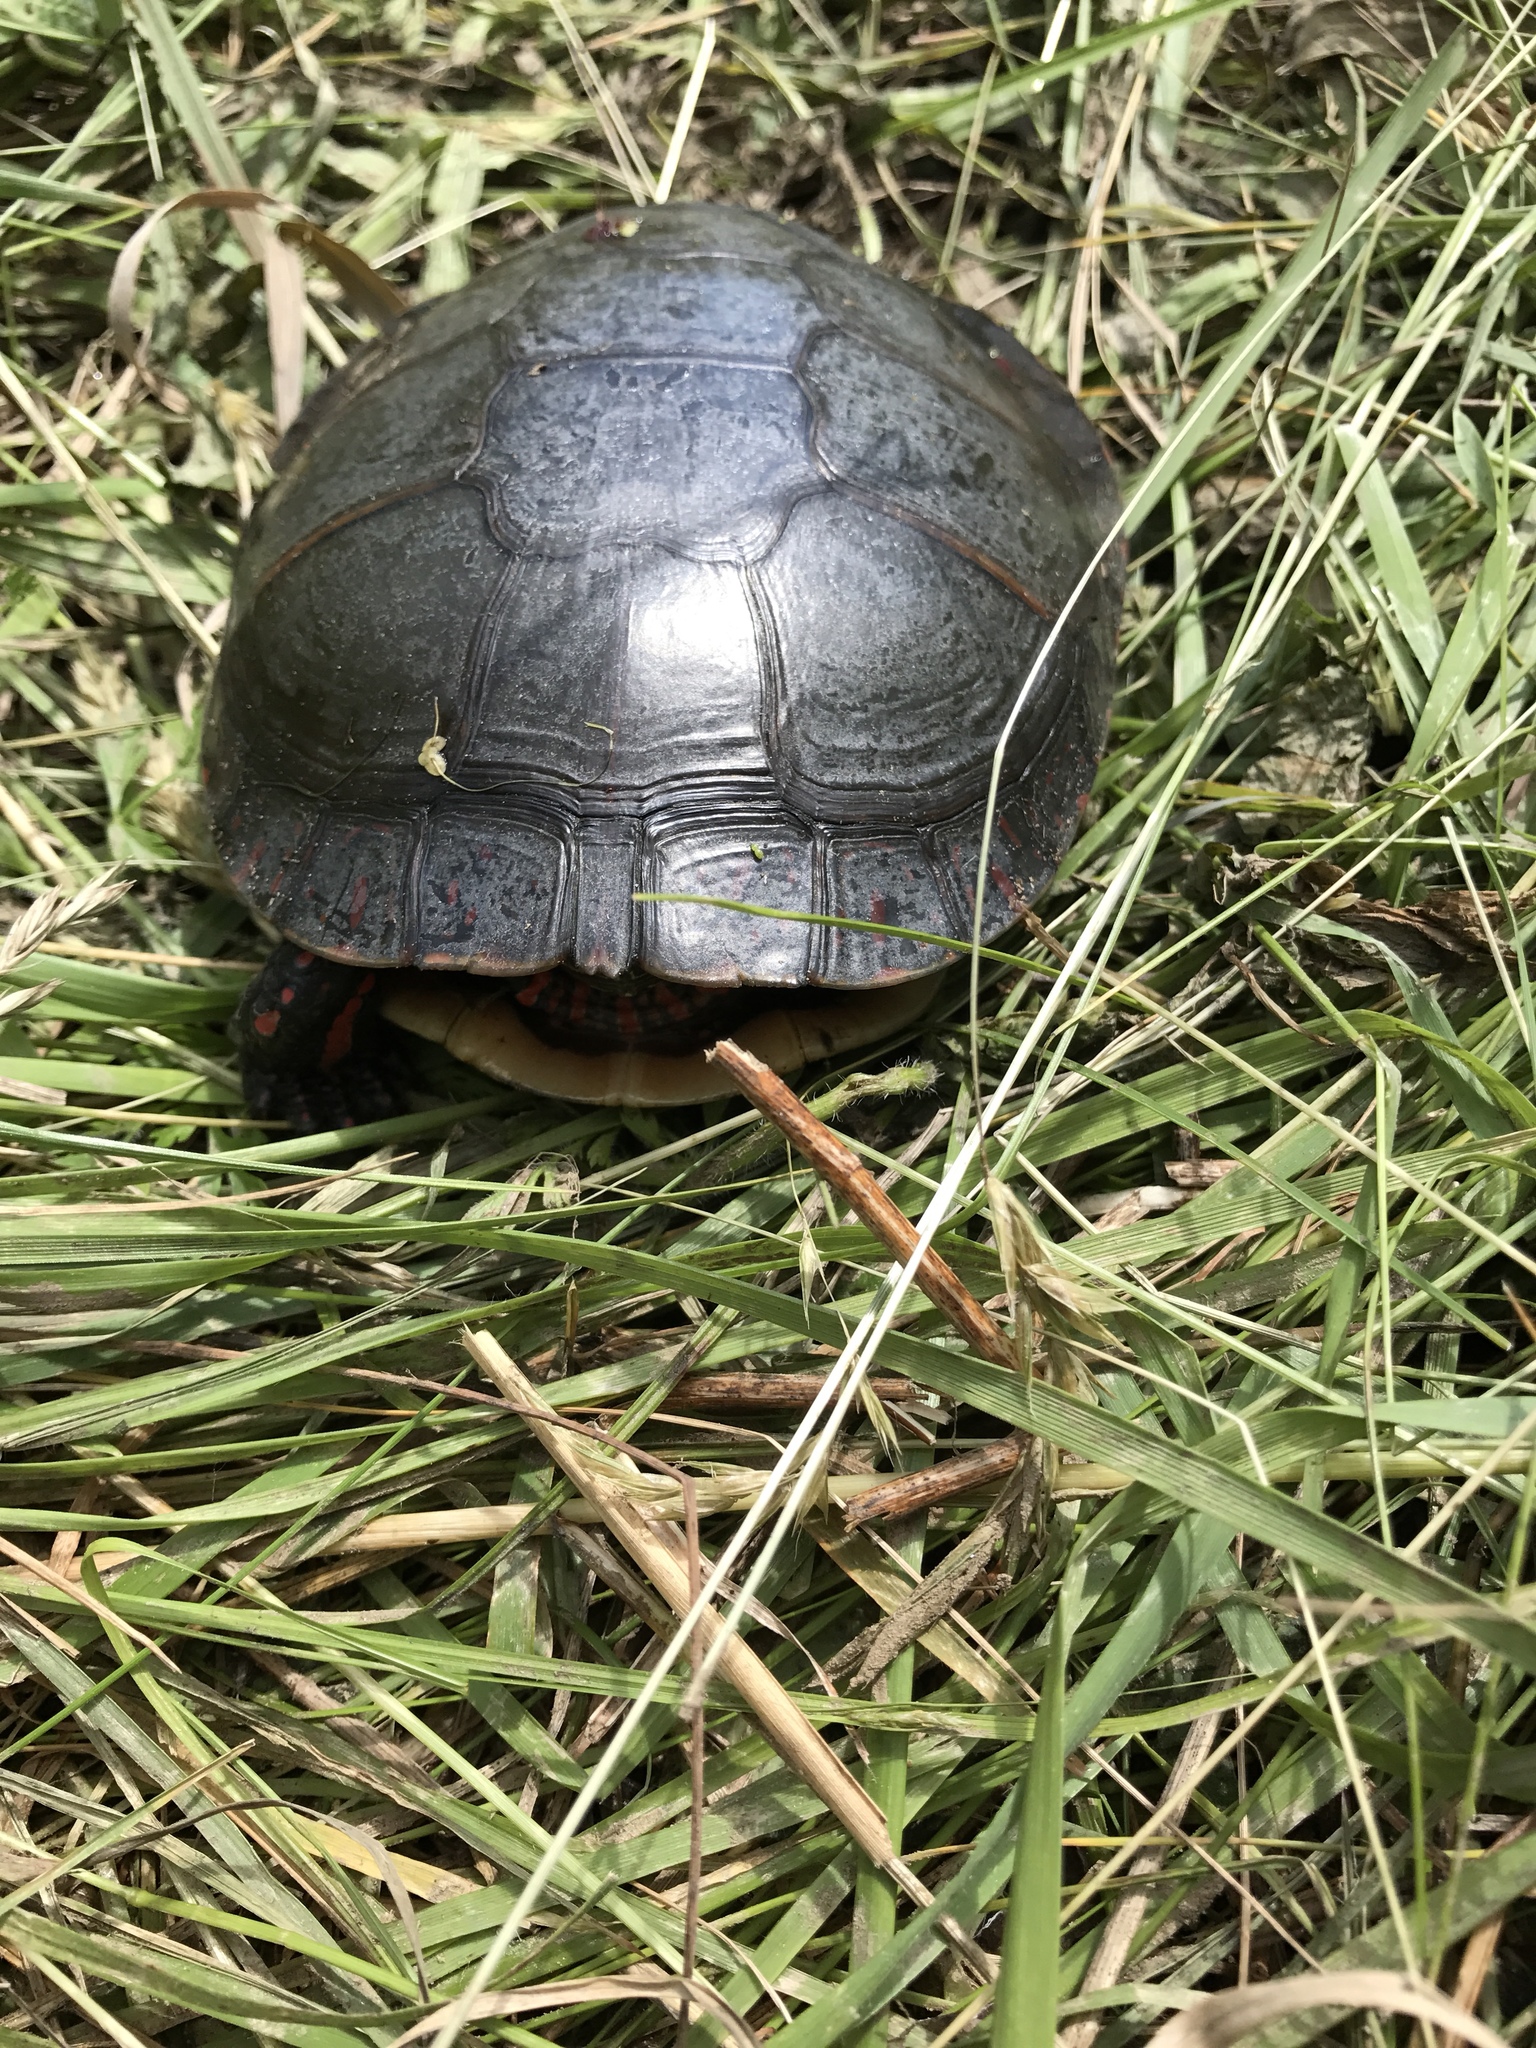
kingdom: Animalia
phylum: Chordata
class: Testudines
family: Emydidae
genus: Chrysemys
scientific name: Chrysemys picta
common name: Painted turtle
